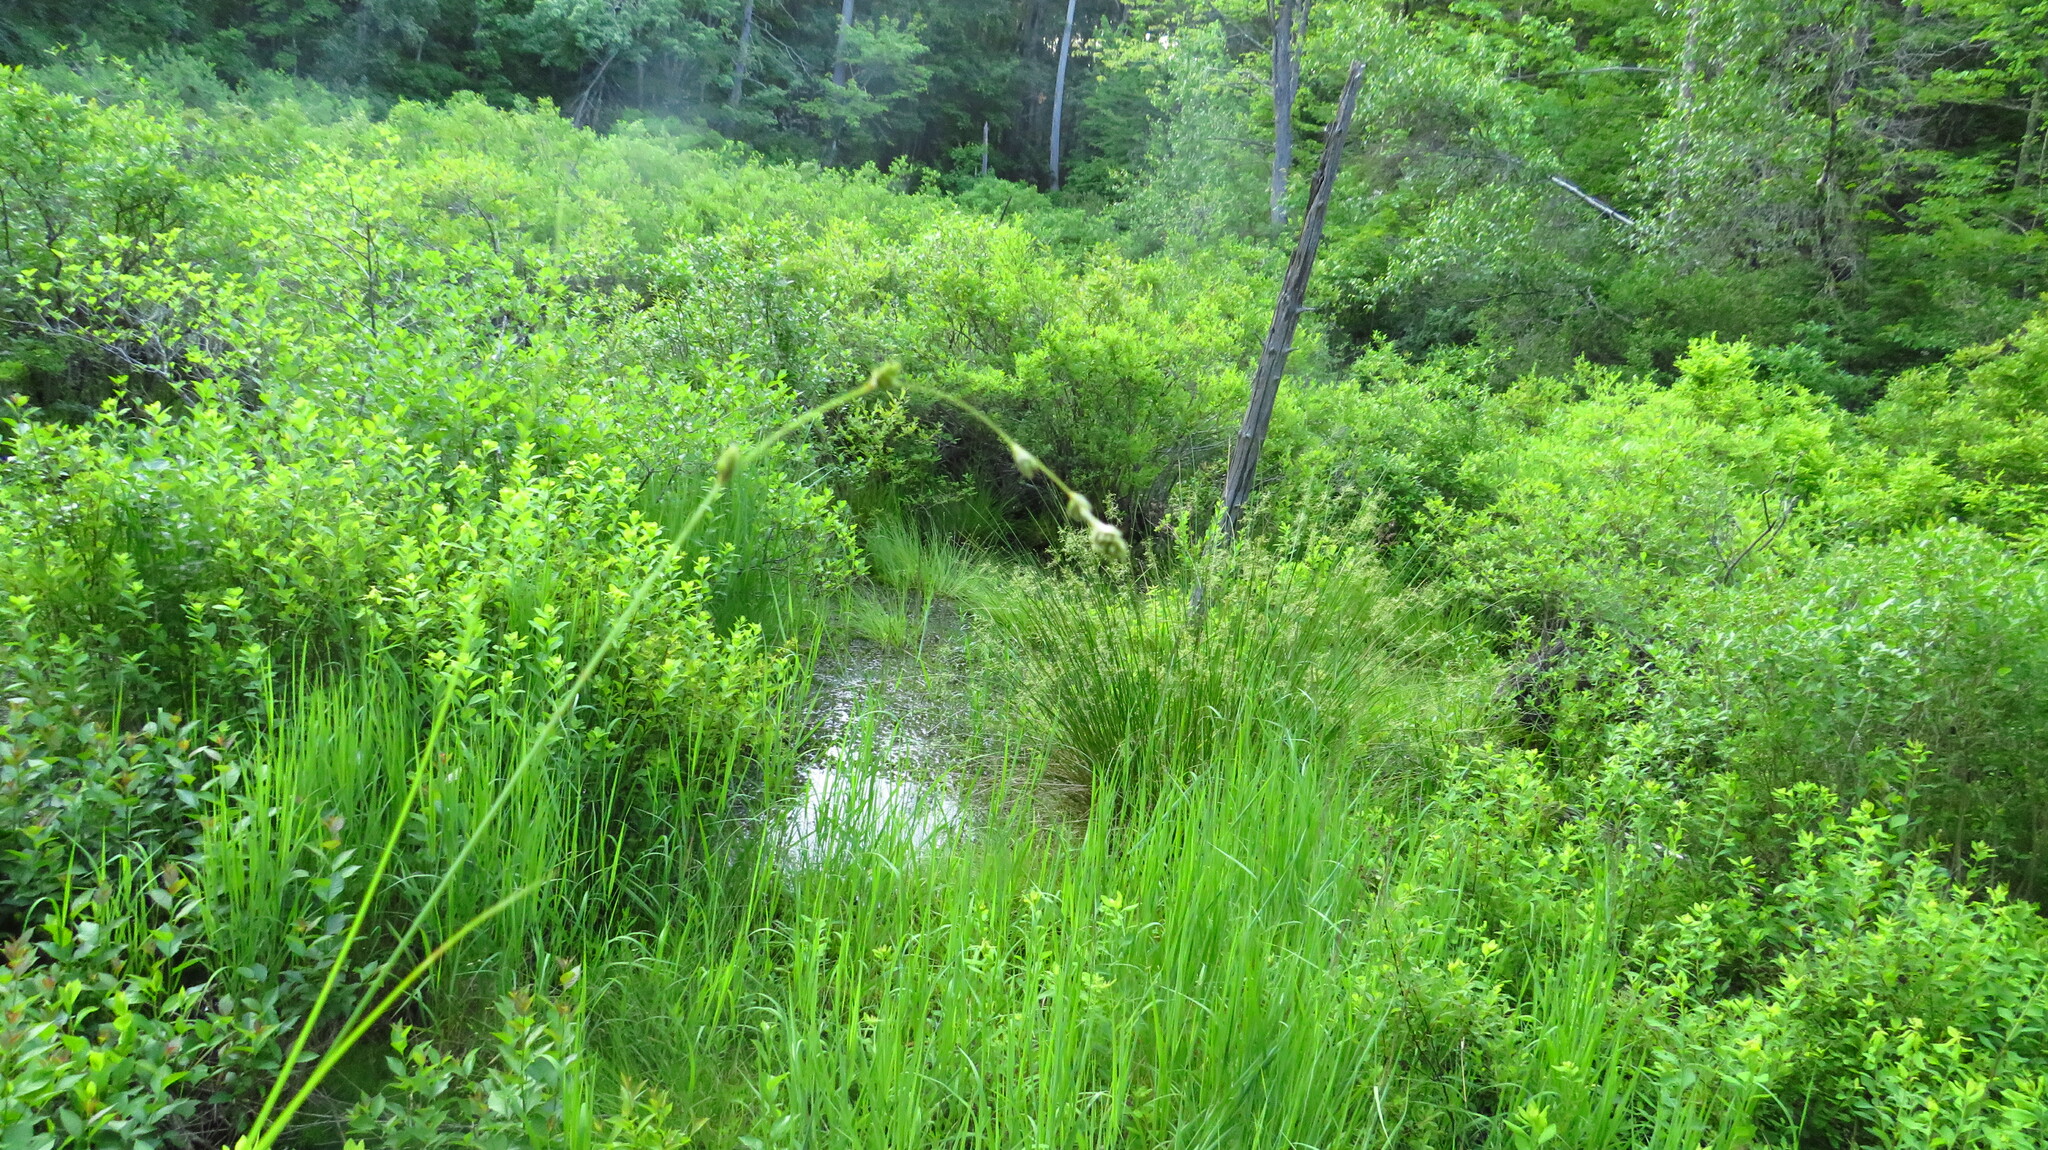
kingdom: Plantae
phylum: Tracheophyta
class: Liliopsida
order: Poales
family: Cyperaceae
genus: Carex
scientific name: Carex canescens
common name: White sedge
